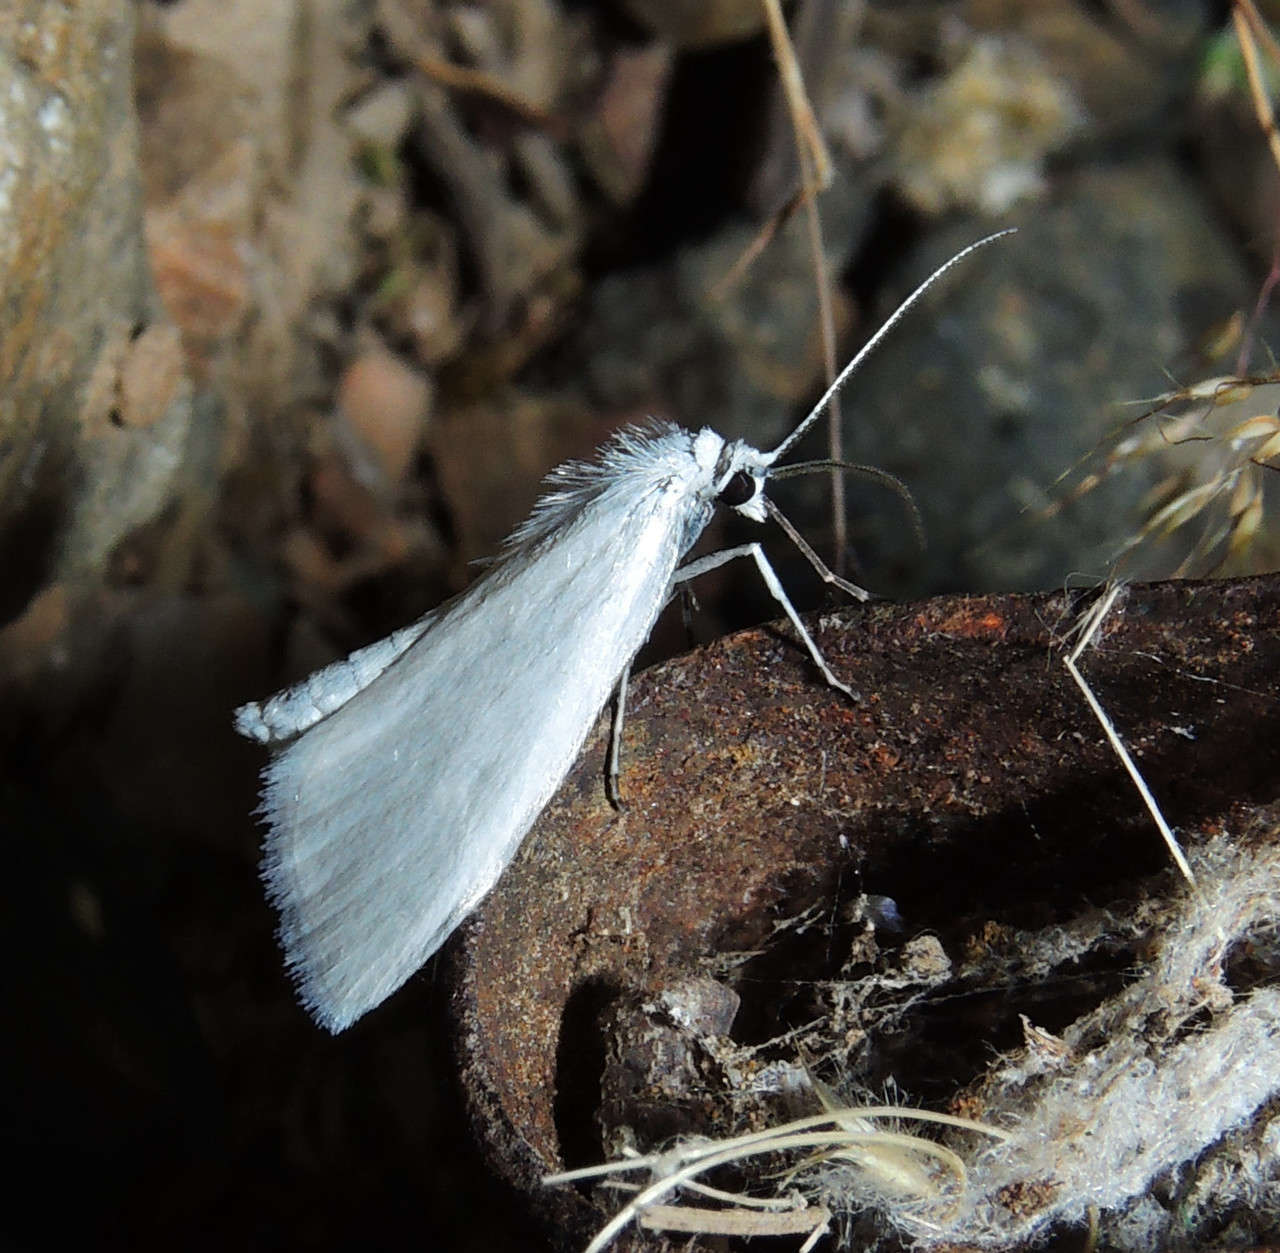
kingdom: Animalia
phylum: Arthropoda
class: Insecta
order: Lepidoptera
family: Crambidae
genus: Tipanaea
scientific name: Tipanaea patulella
